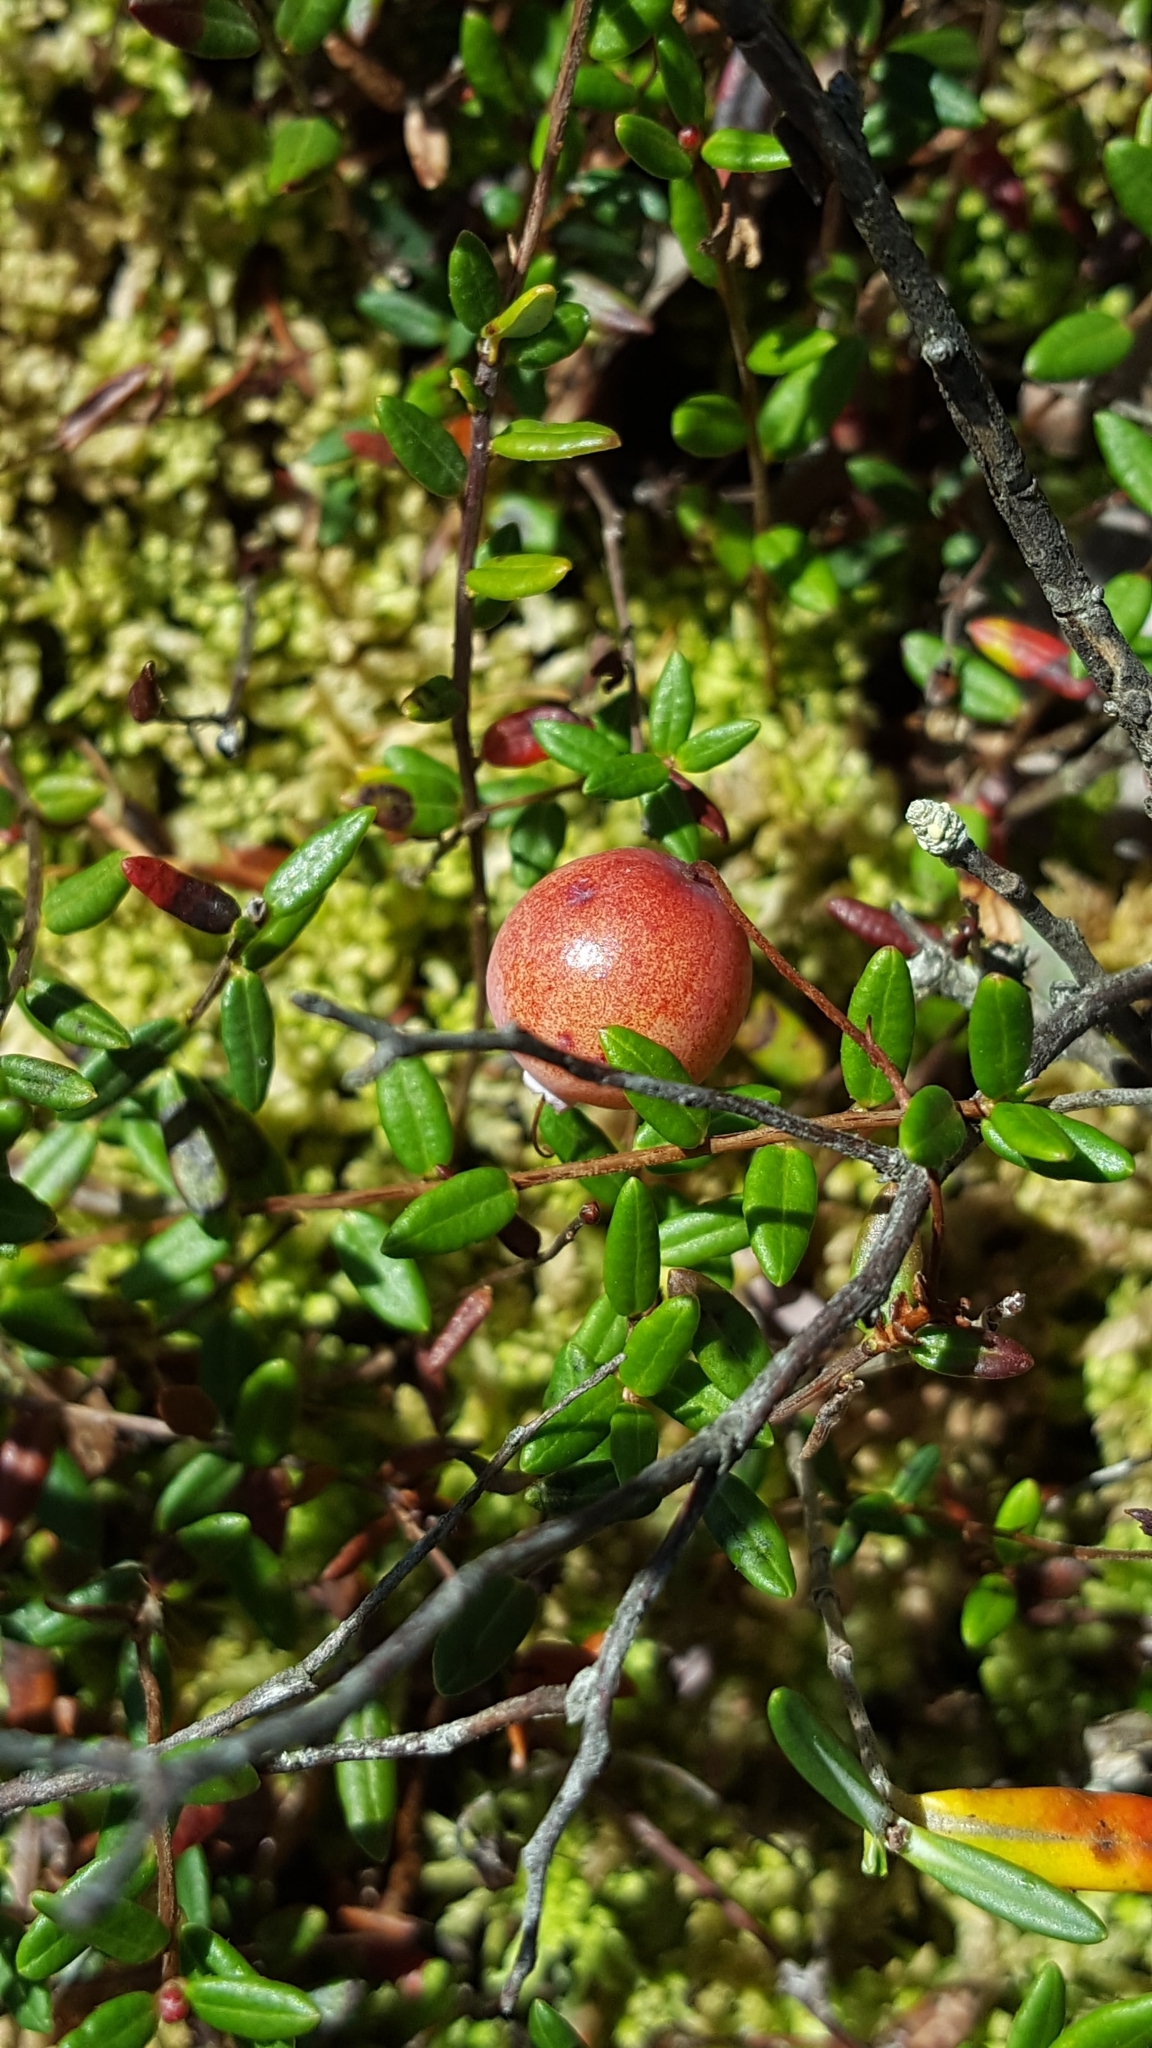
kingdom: Plantae
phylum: Tracheophyta
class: Magnoliopsida
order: Ericales
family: Ericaceae
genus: Vaccinium
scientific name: Vaccinium oxycoccos
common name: Cranberry
